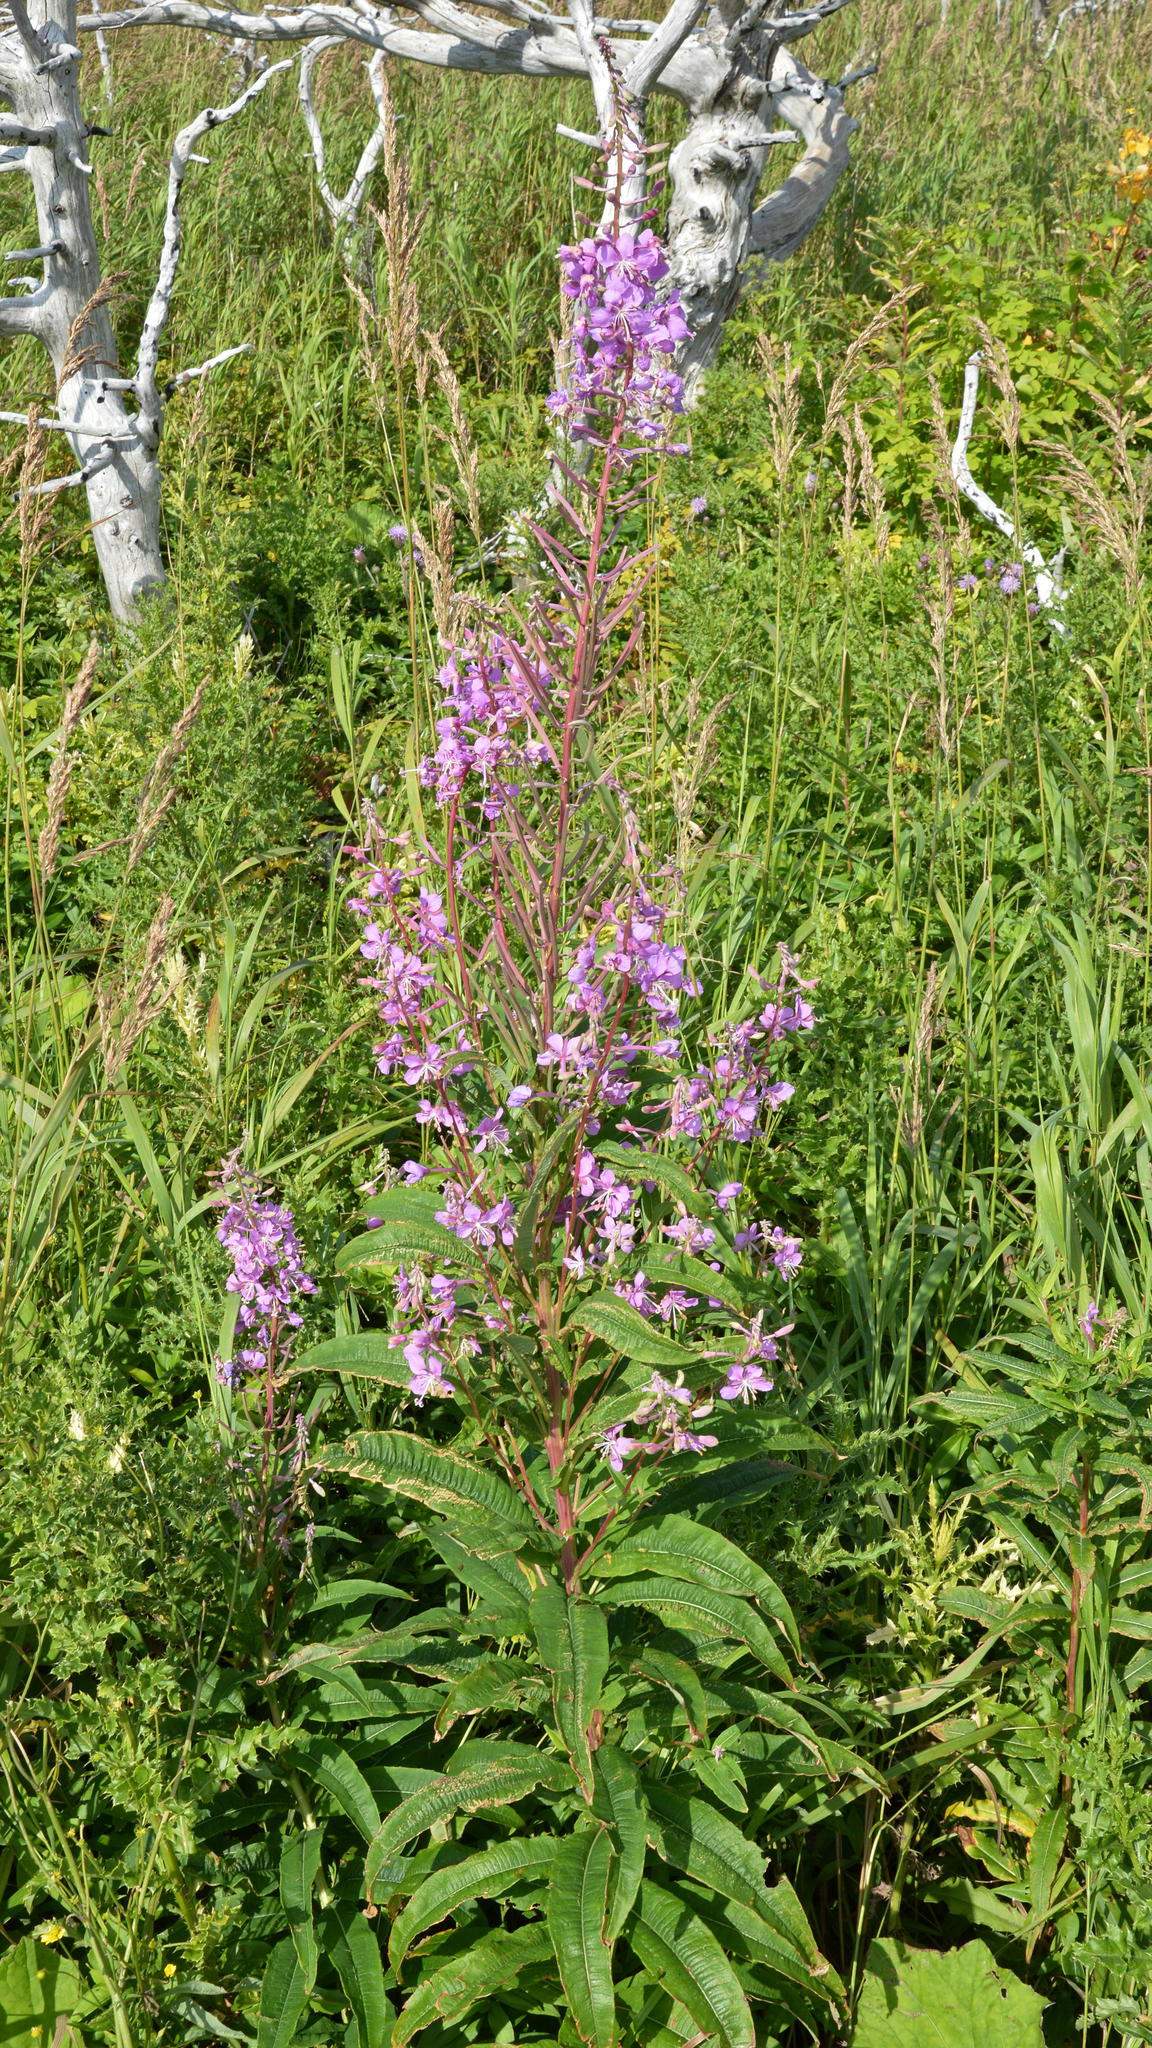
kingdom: Plantae
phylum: Tracheophyta
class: Magnoliopsida
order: Myrtales
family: Onagraceae
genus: Chamaenerion
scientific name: Chamaenerion angustifolium
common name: Fireweed
